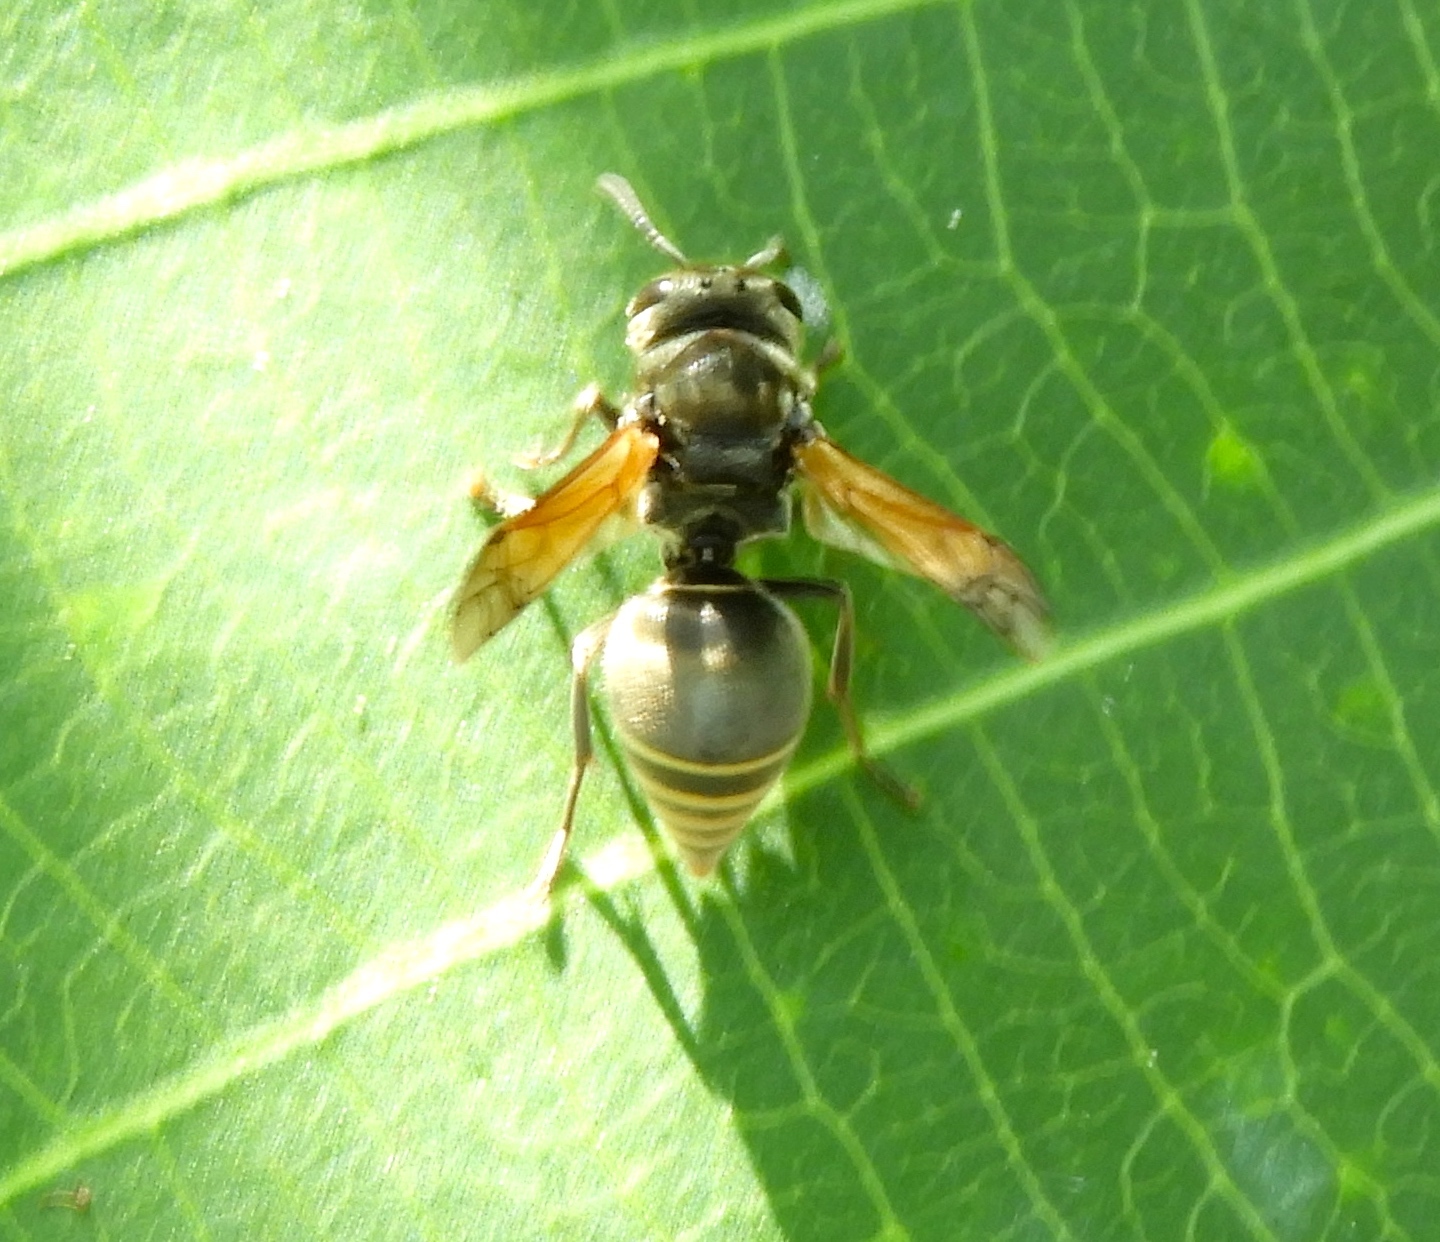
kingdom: Animalia
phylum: Arthropoda
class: Insecta
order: Hymenoptera
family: Vespidae
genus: Brachygastra
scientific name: Brachygastra mellifica
